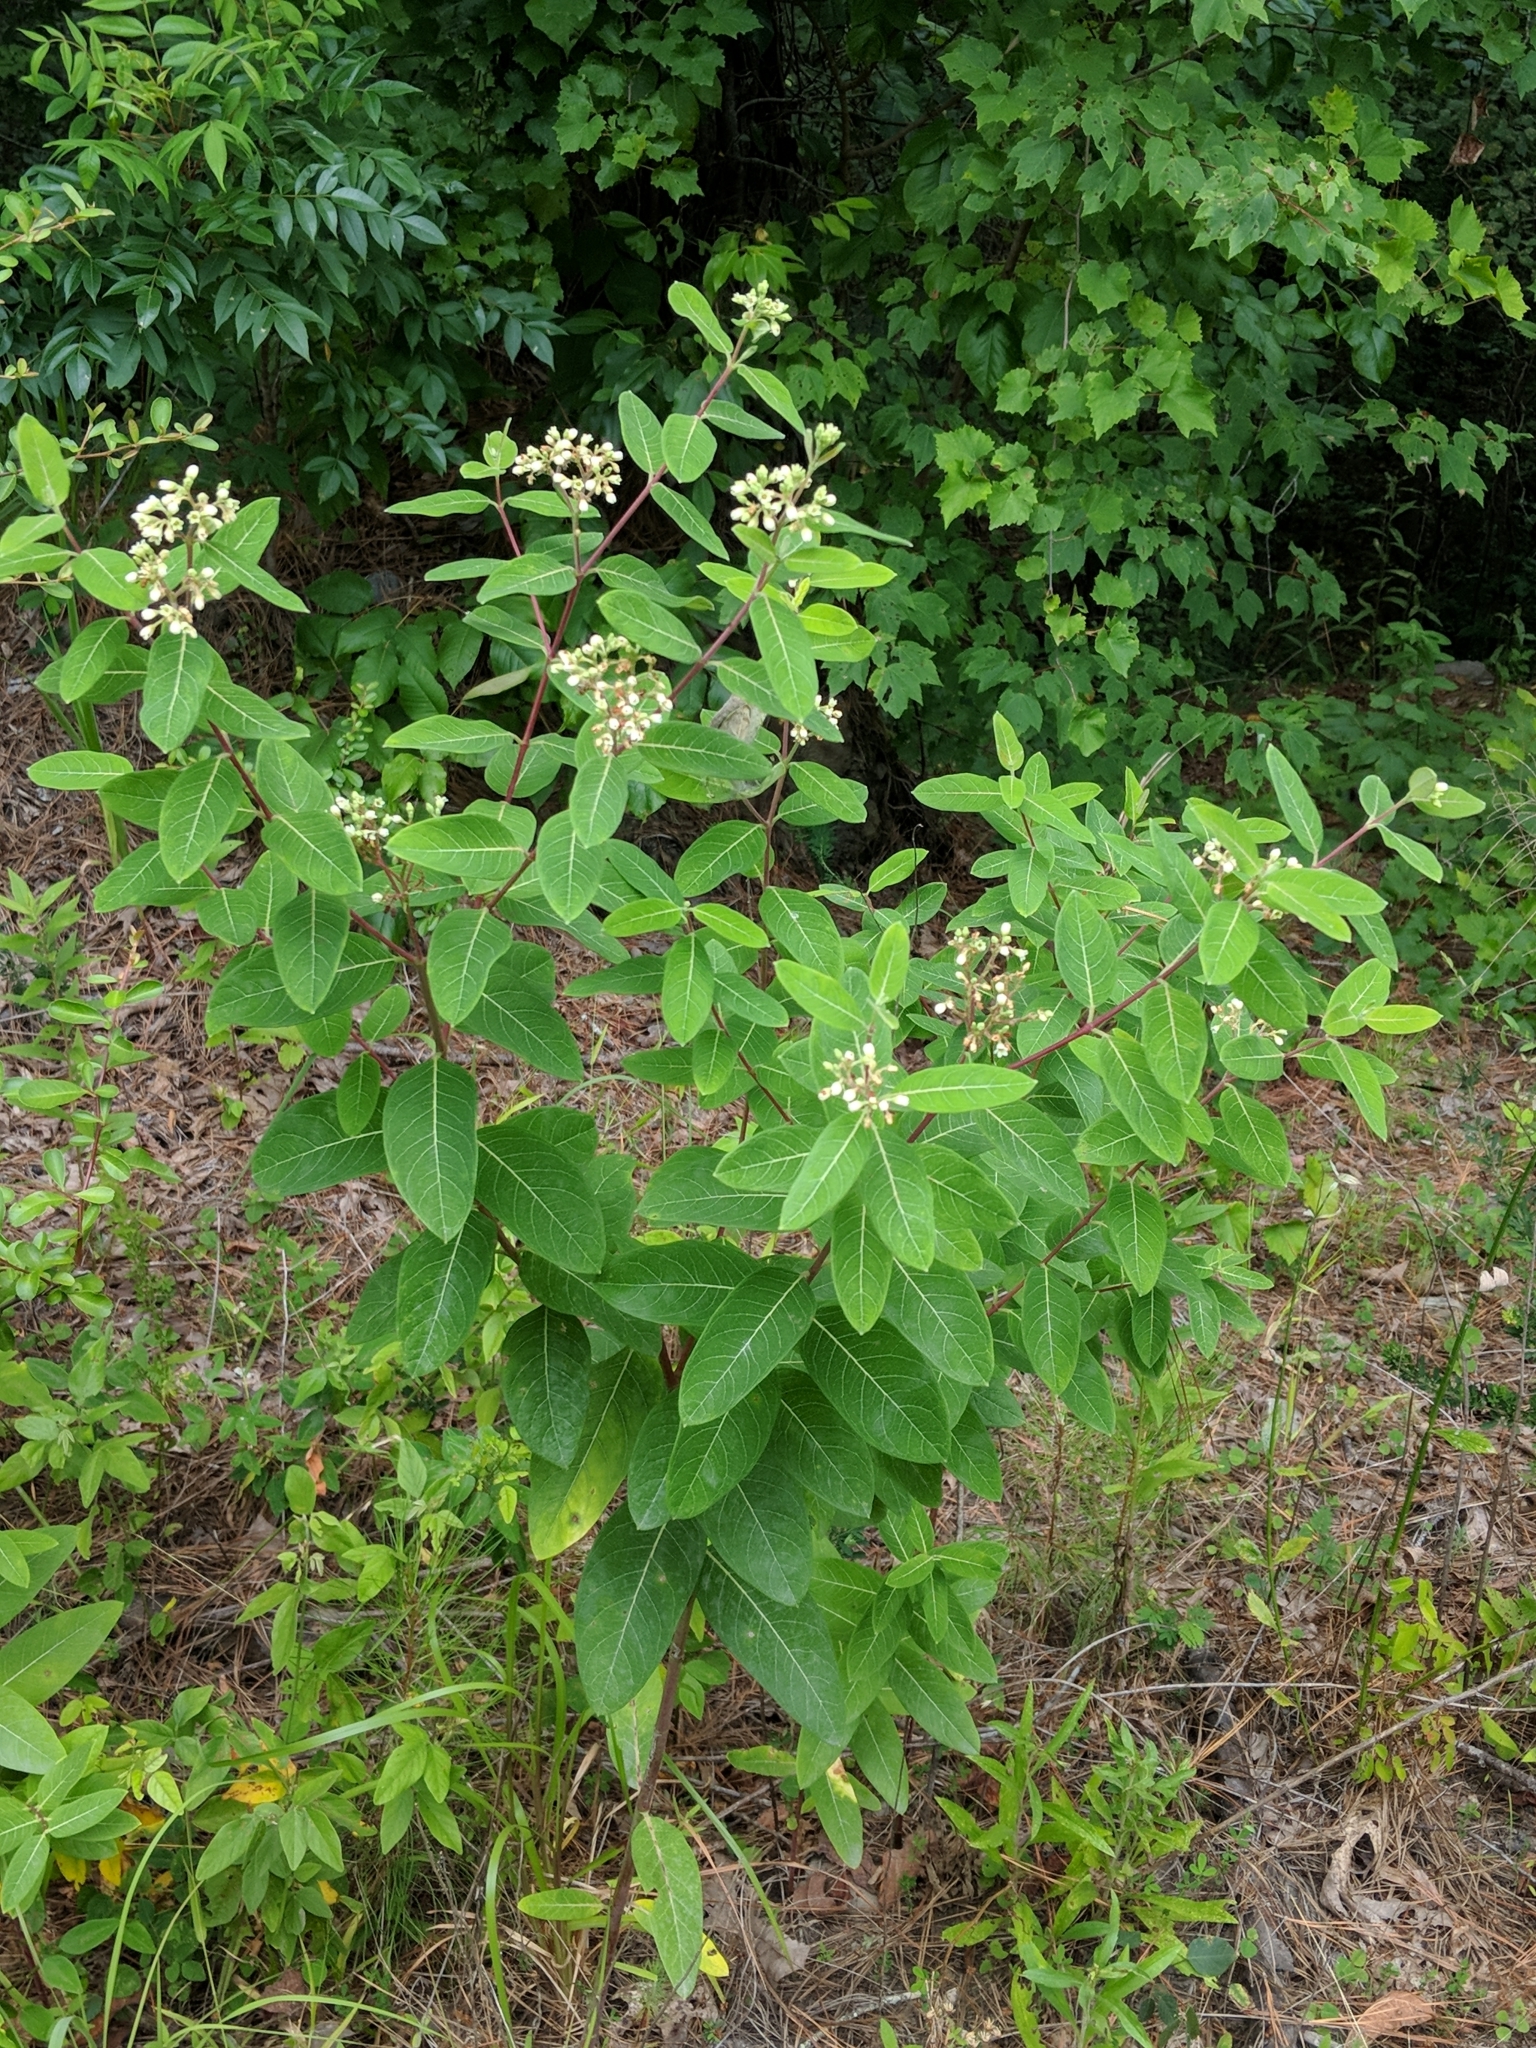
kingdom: Plantae
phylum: Tracheophyta
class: Magnoliopsida
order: Gentianales
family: Apocynaceae
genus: Apocynum
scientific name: Apocynum cannabinum
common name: Hemp dogbane
